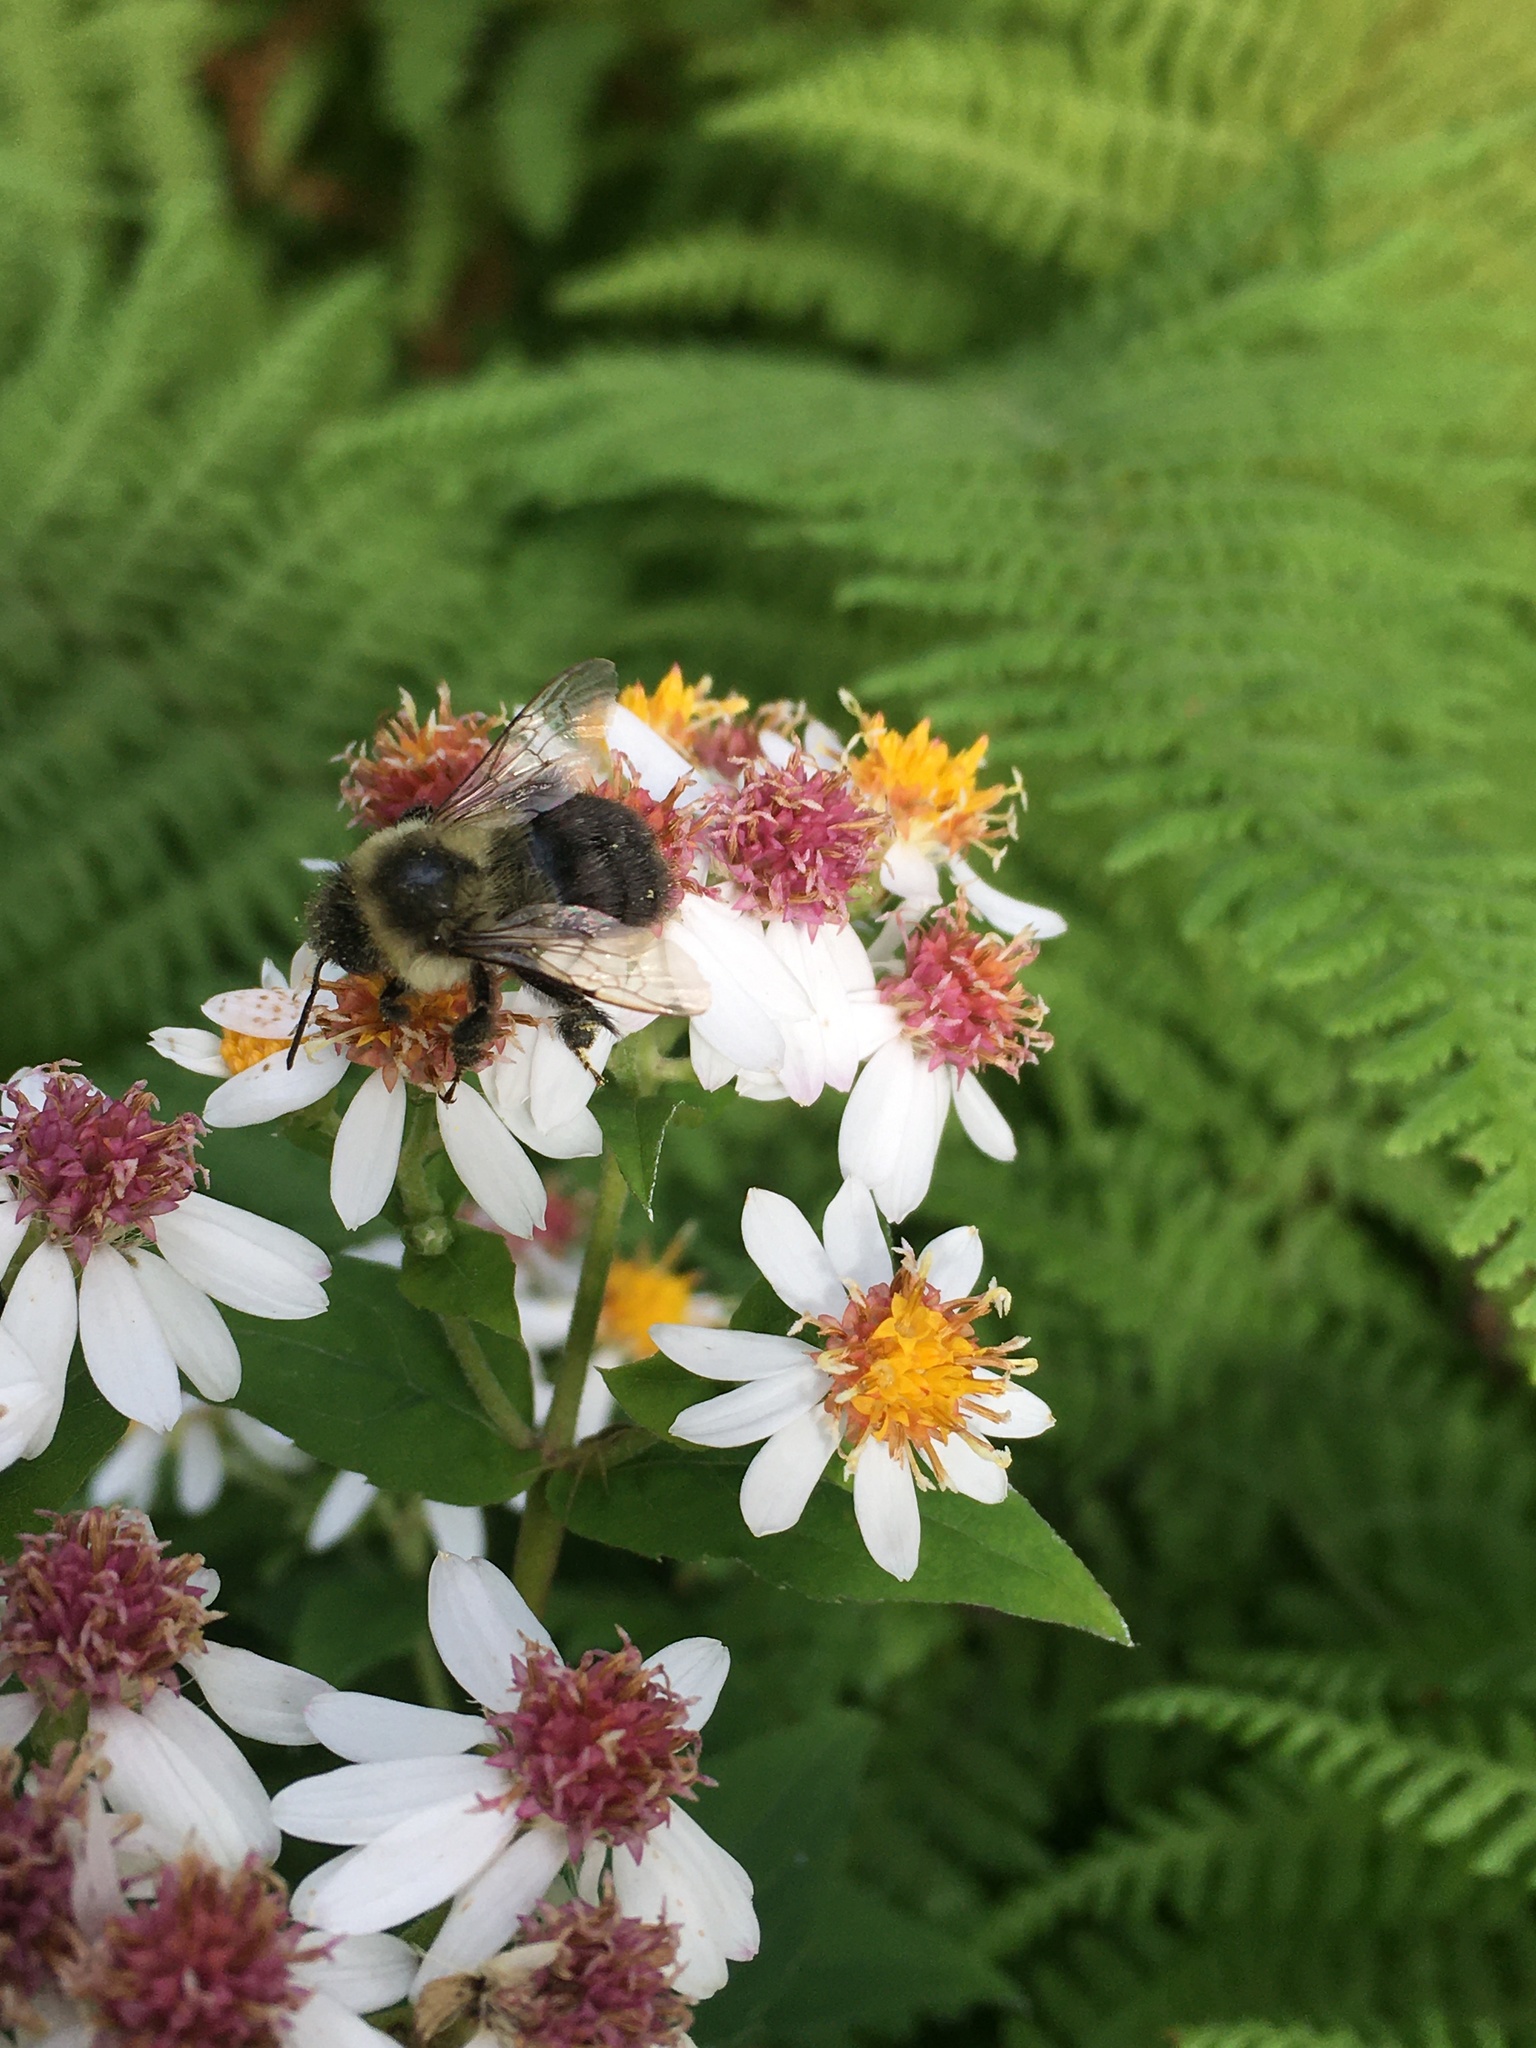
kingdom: Animalia
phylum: Arthropoda
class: Insecta
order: Hymenoptera
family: Apidae
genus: Bombus
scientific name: Bombus impatiens
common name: Common eastern bumble bee
